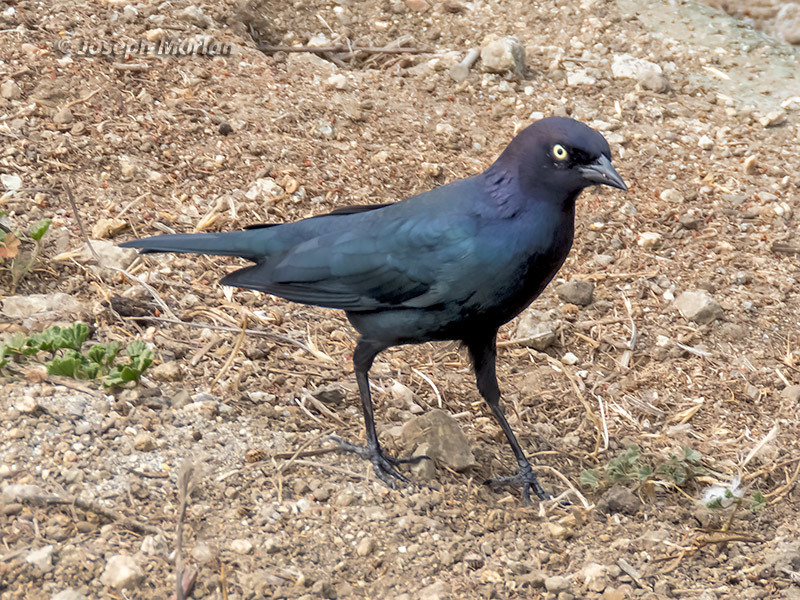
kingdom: Animalia
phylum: Chordata
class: Aves
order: Passeriformes
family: Icteridae
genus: Euphagus
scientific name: Euphagus cyanocephalus
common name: Brewer's blackbird
